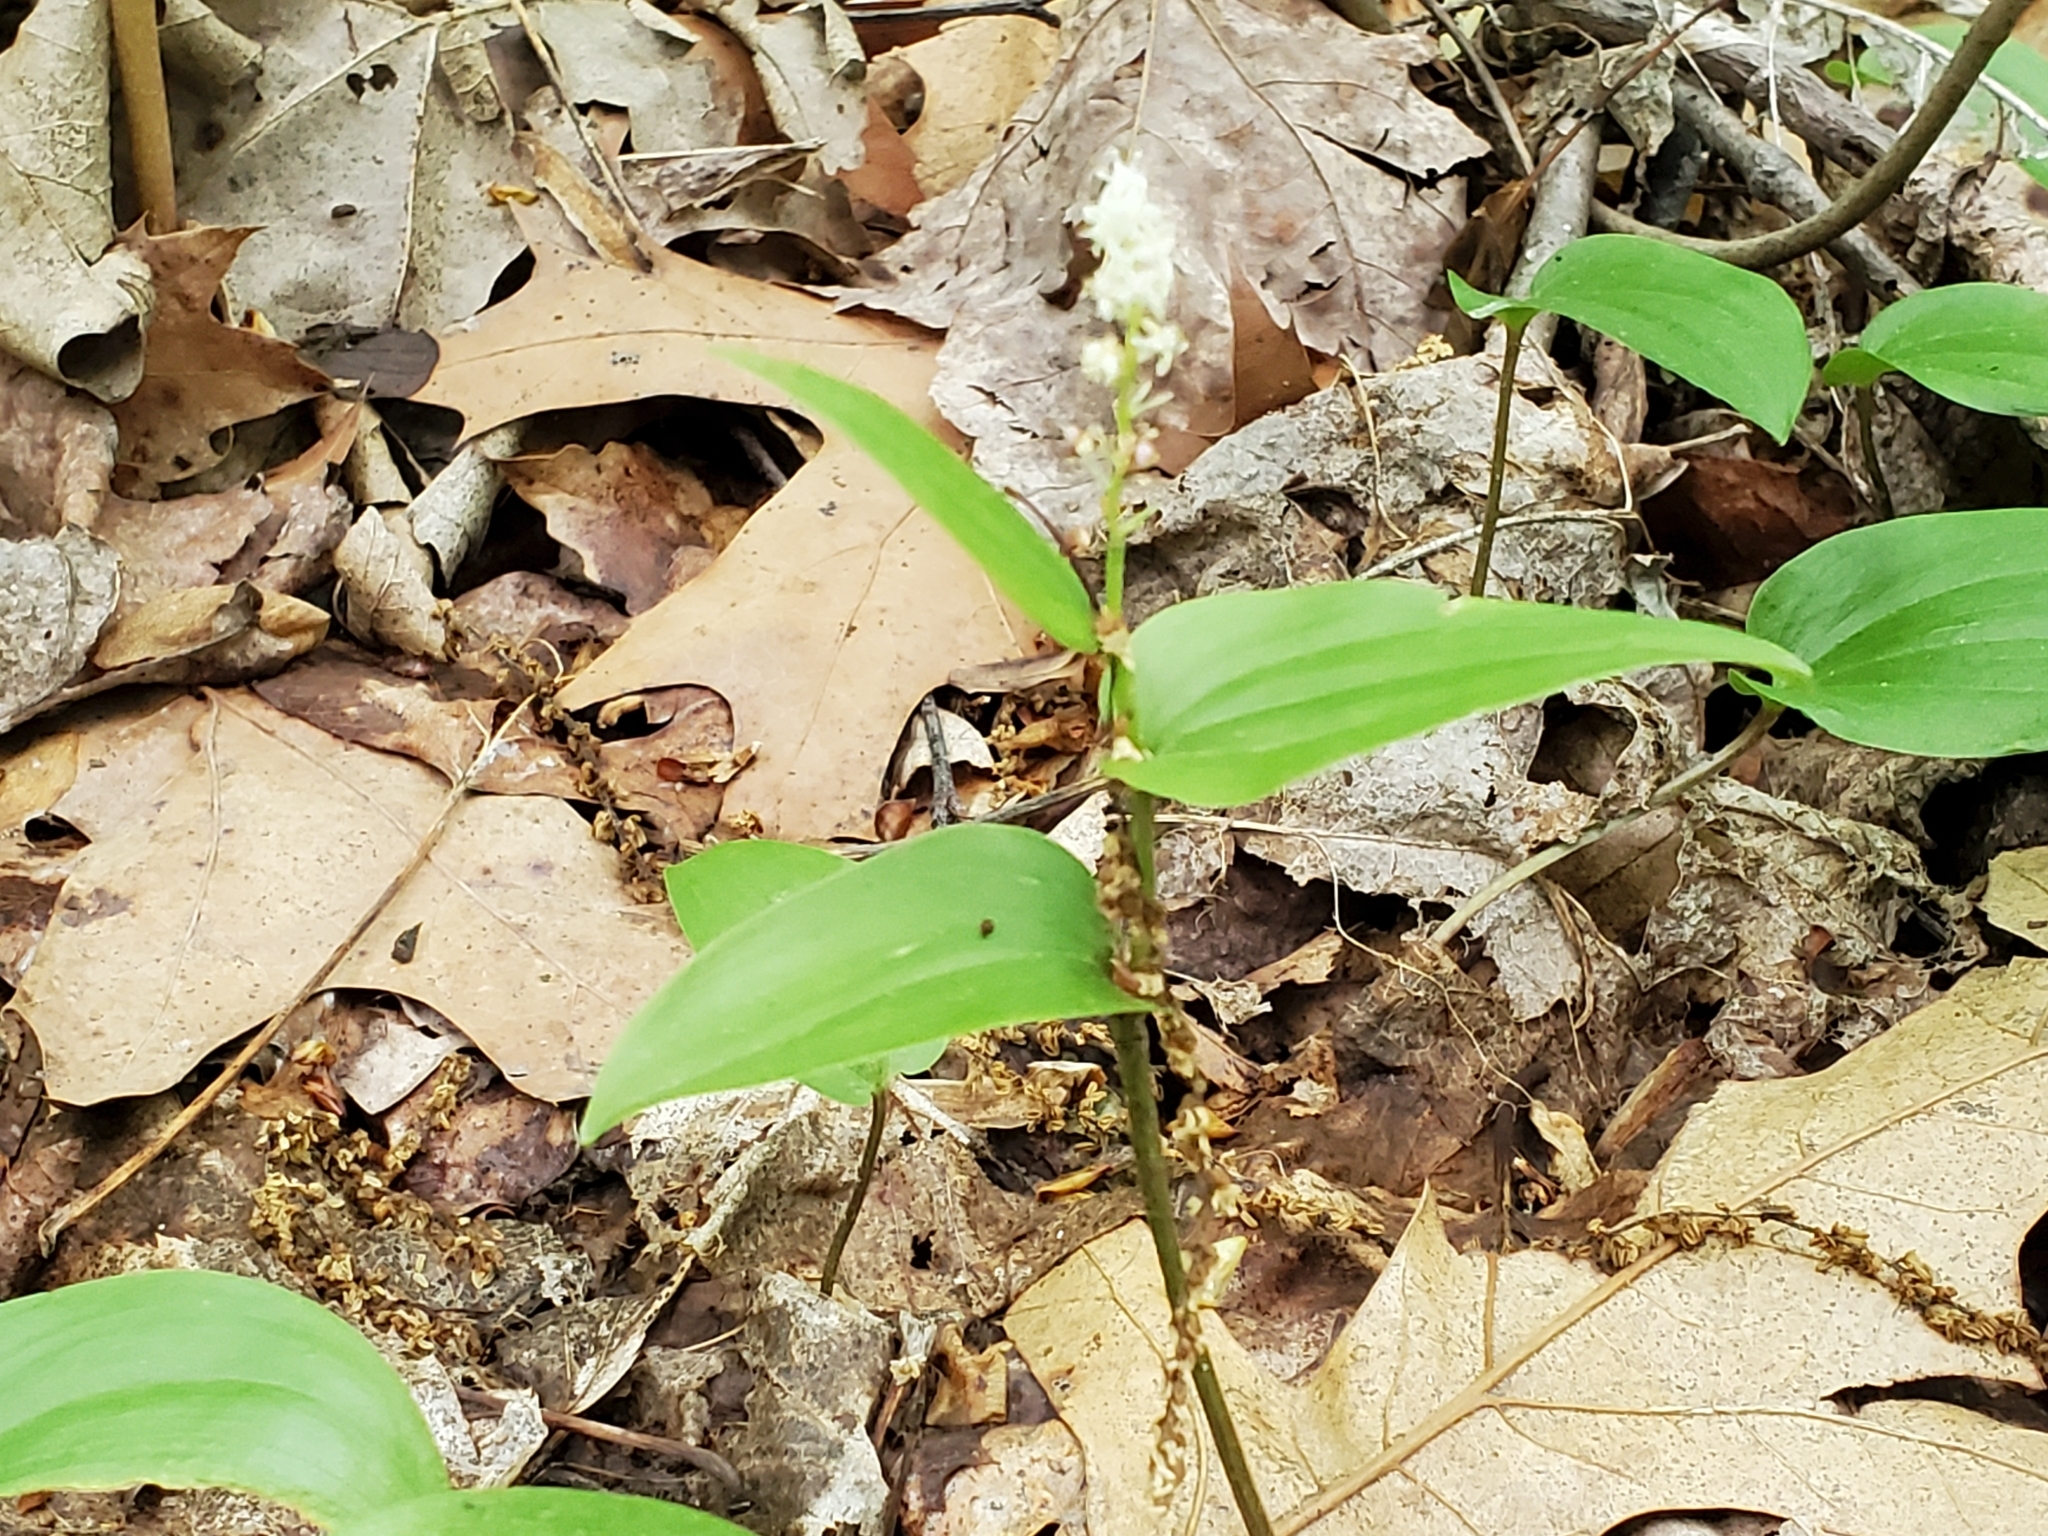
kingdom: Plantae
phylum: Tracheophyta
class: Liliopsida
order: Asparagales
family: Asparagaceae
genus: Maianthemum
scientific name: Maianthemum canadense
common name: False lily-of-the-valley
